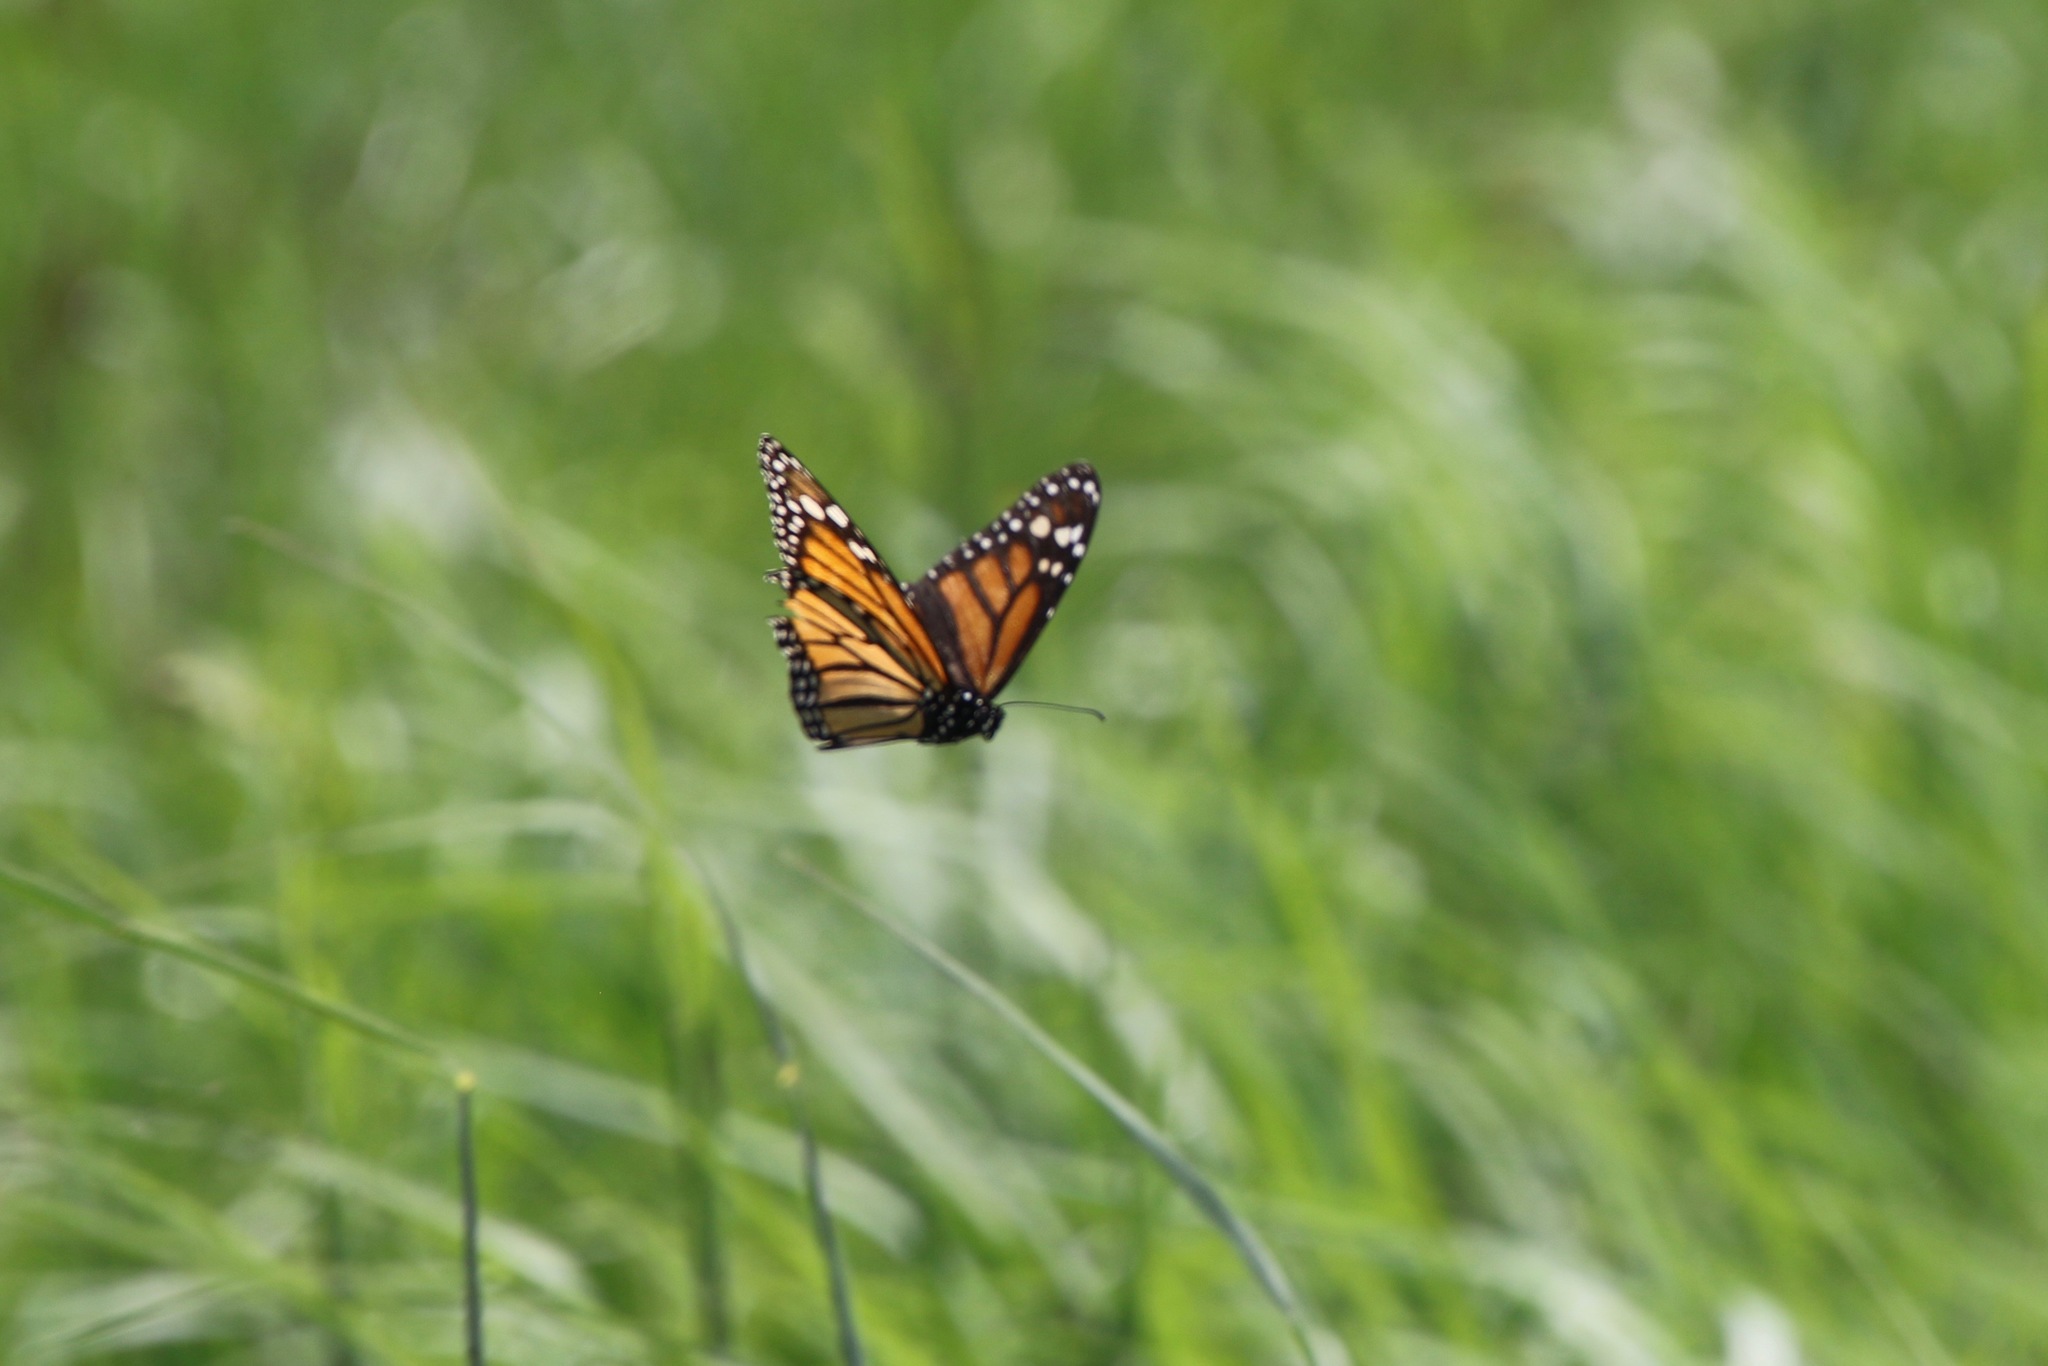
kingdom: Animalia
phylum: Arthropoda
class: Insecta
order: Lepidoptera
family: Nymphalidae
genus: Danaus
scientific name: Danaus plexippus
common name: Monarch
